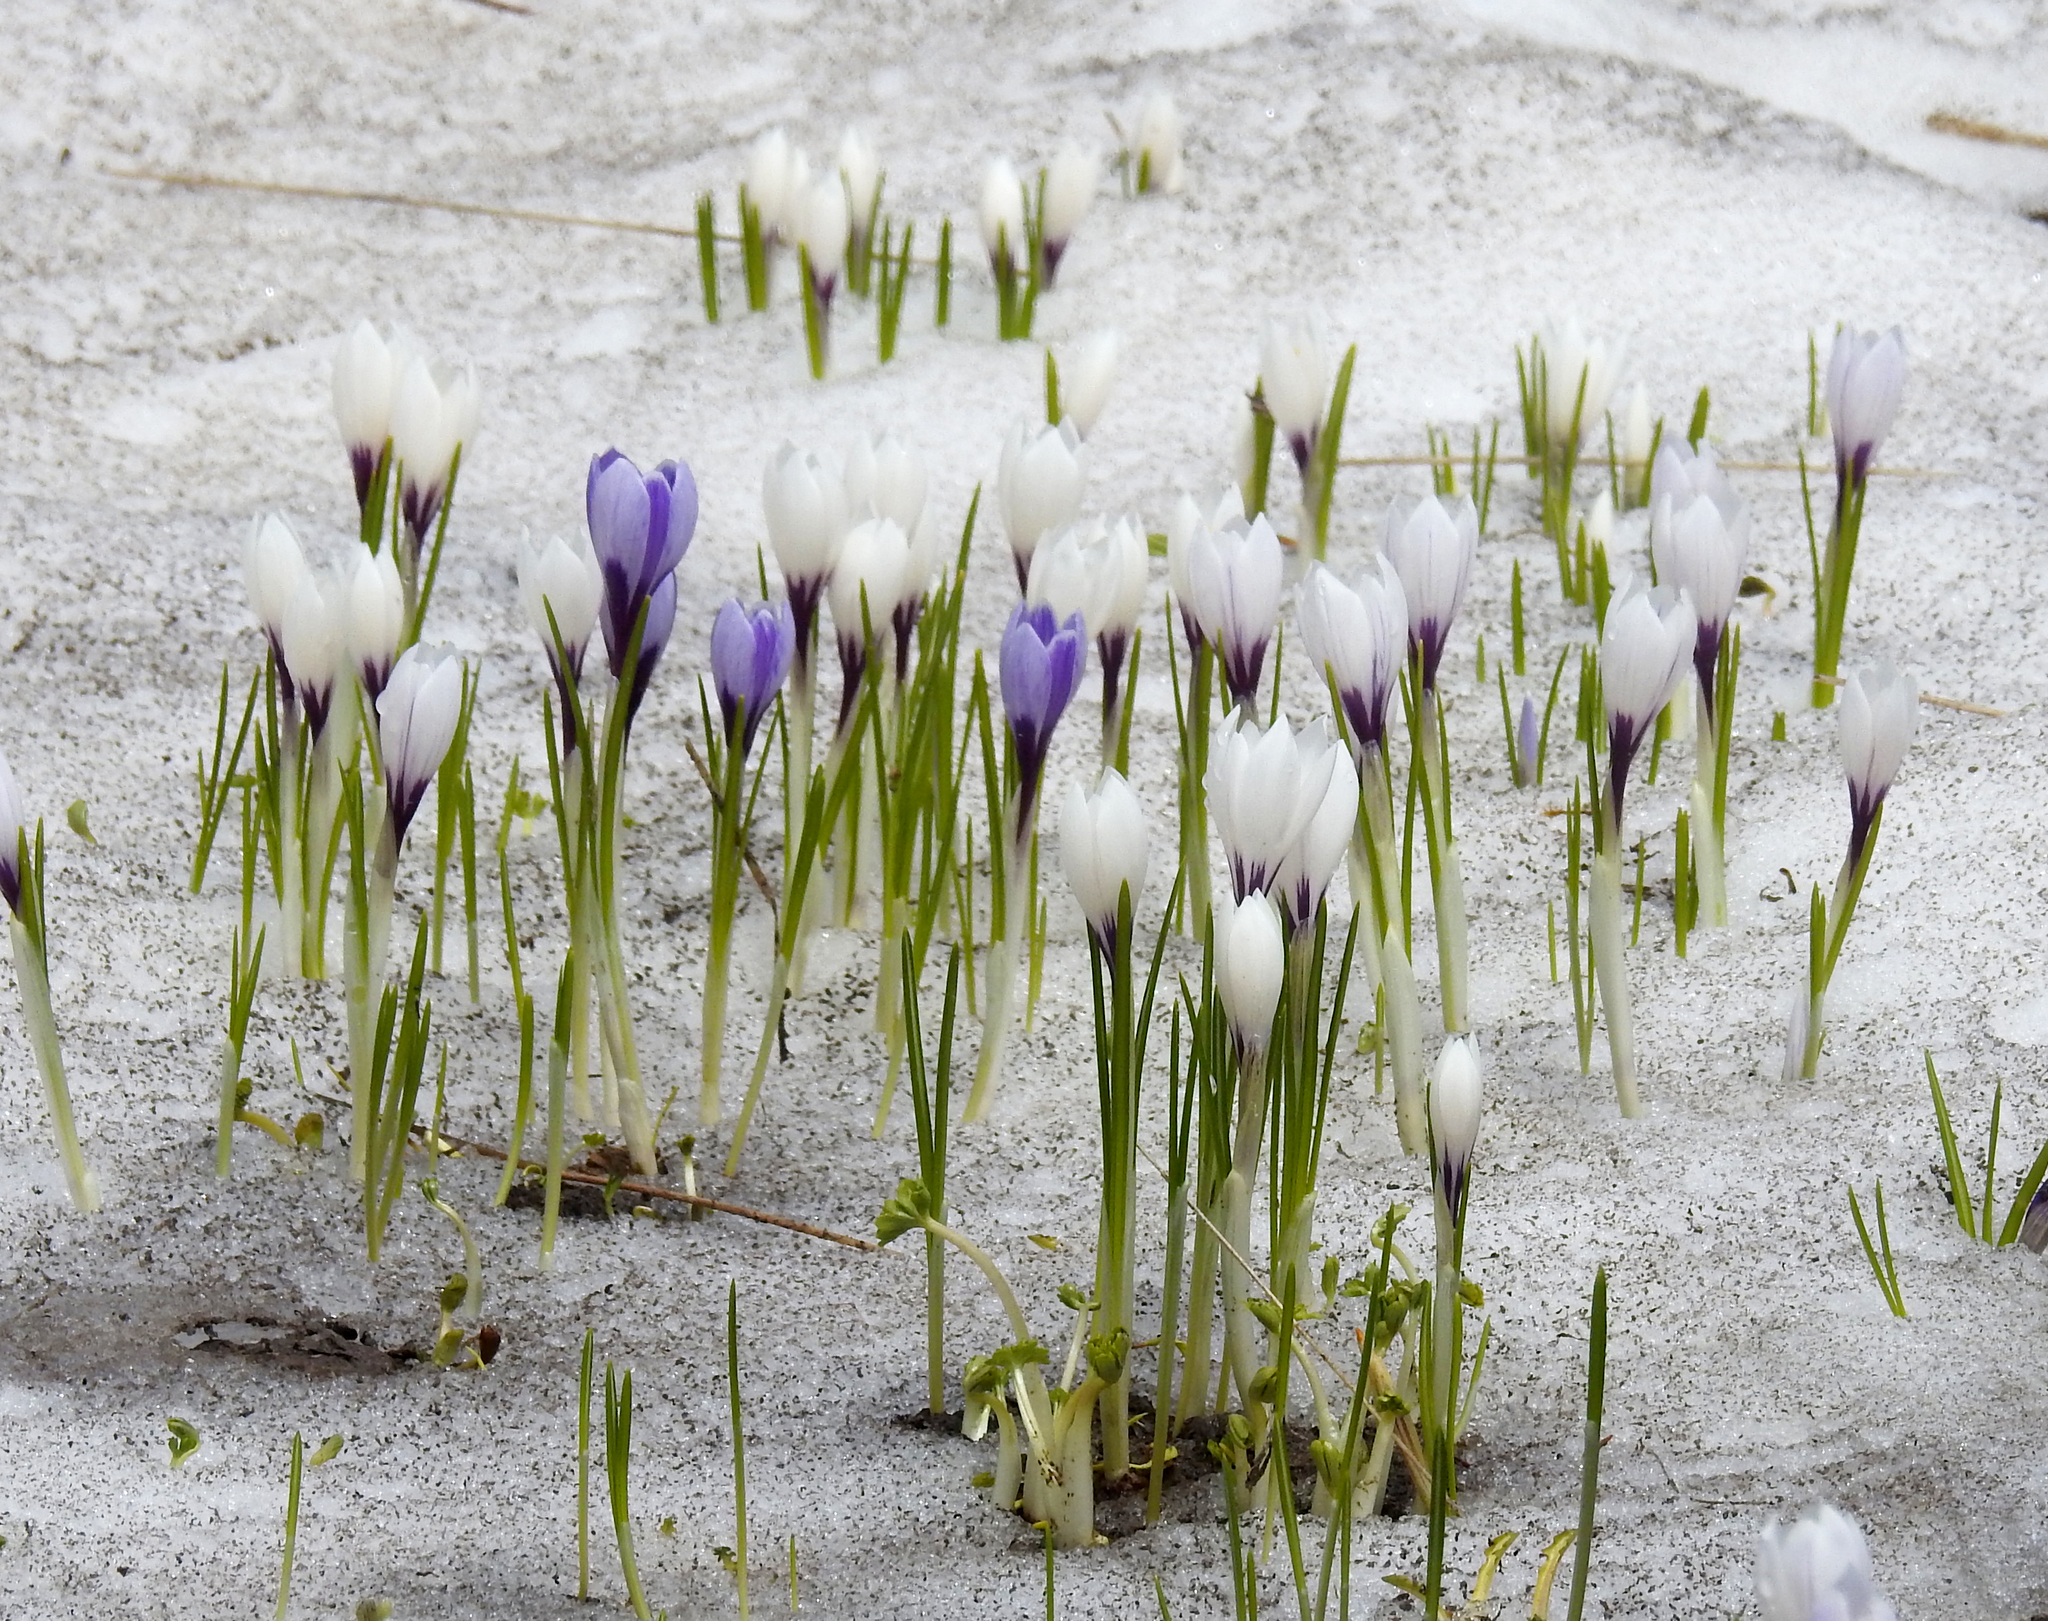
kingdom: Plantae
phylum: Tracheophyta
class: Liliopsida
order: Asparagales
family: Iridaceae
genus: Crocus
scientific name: Crocus vernus
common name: Spring crocus
